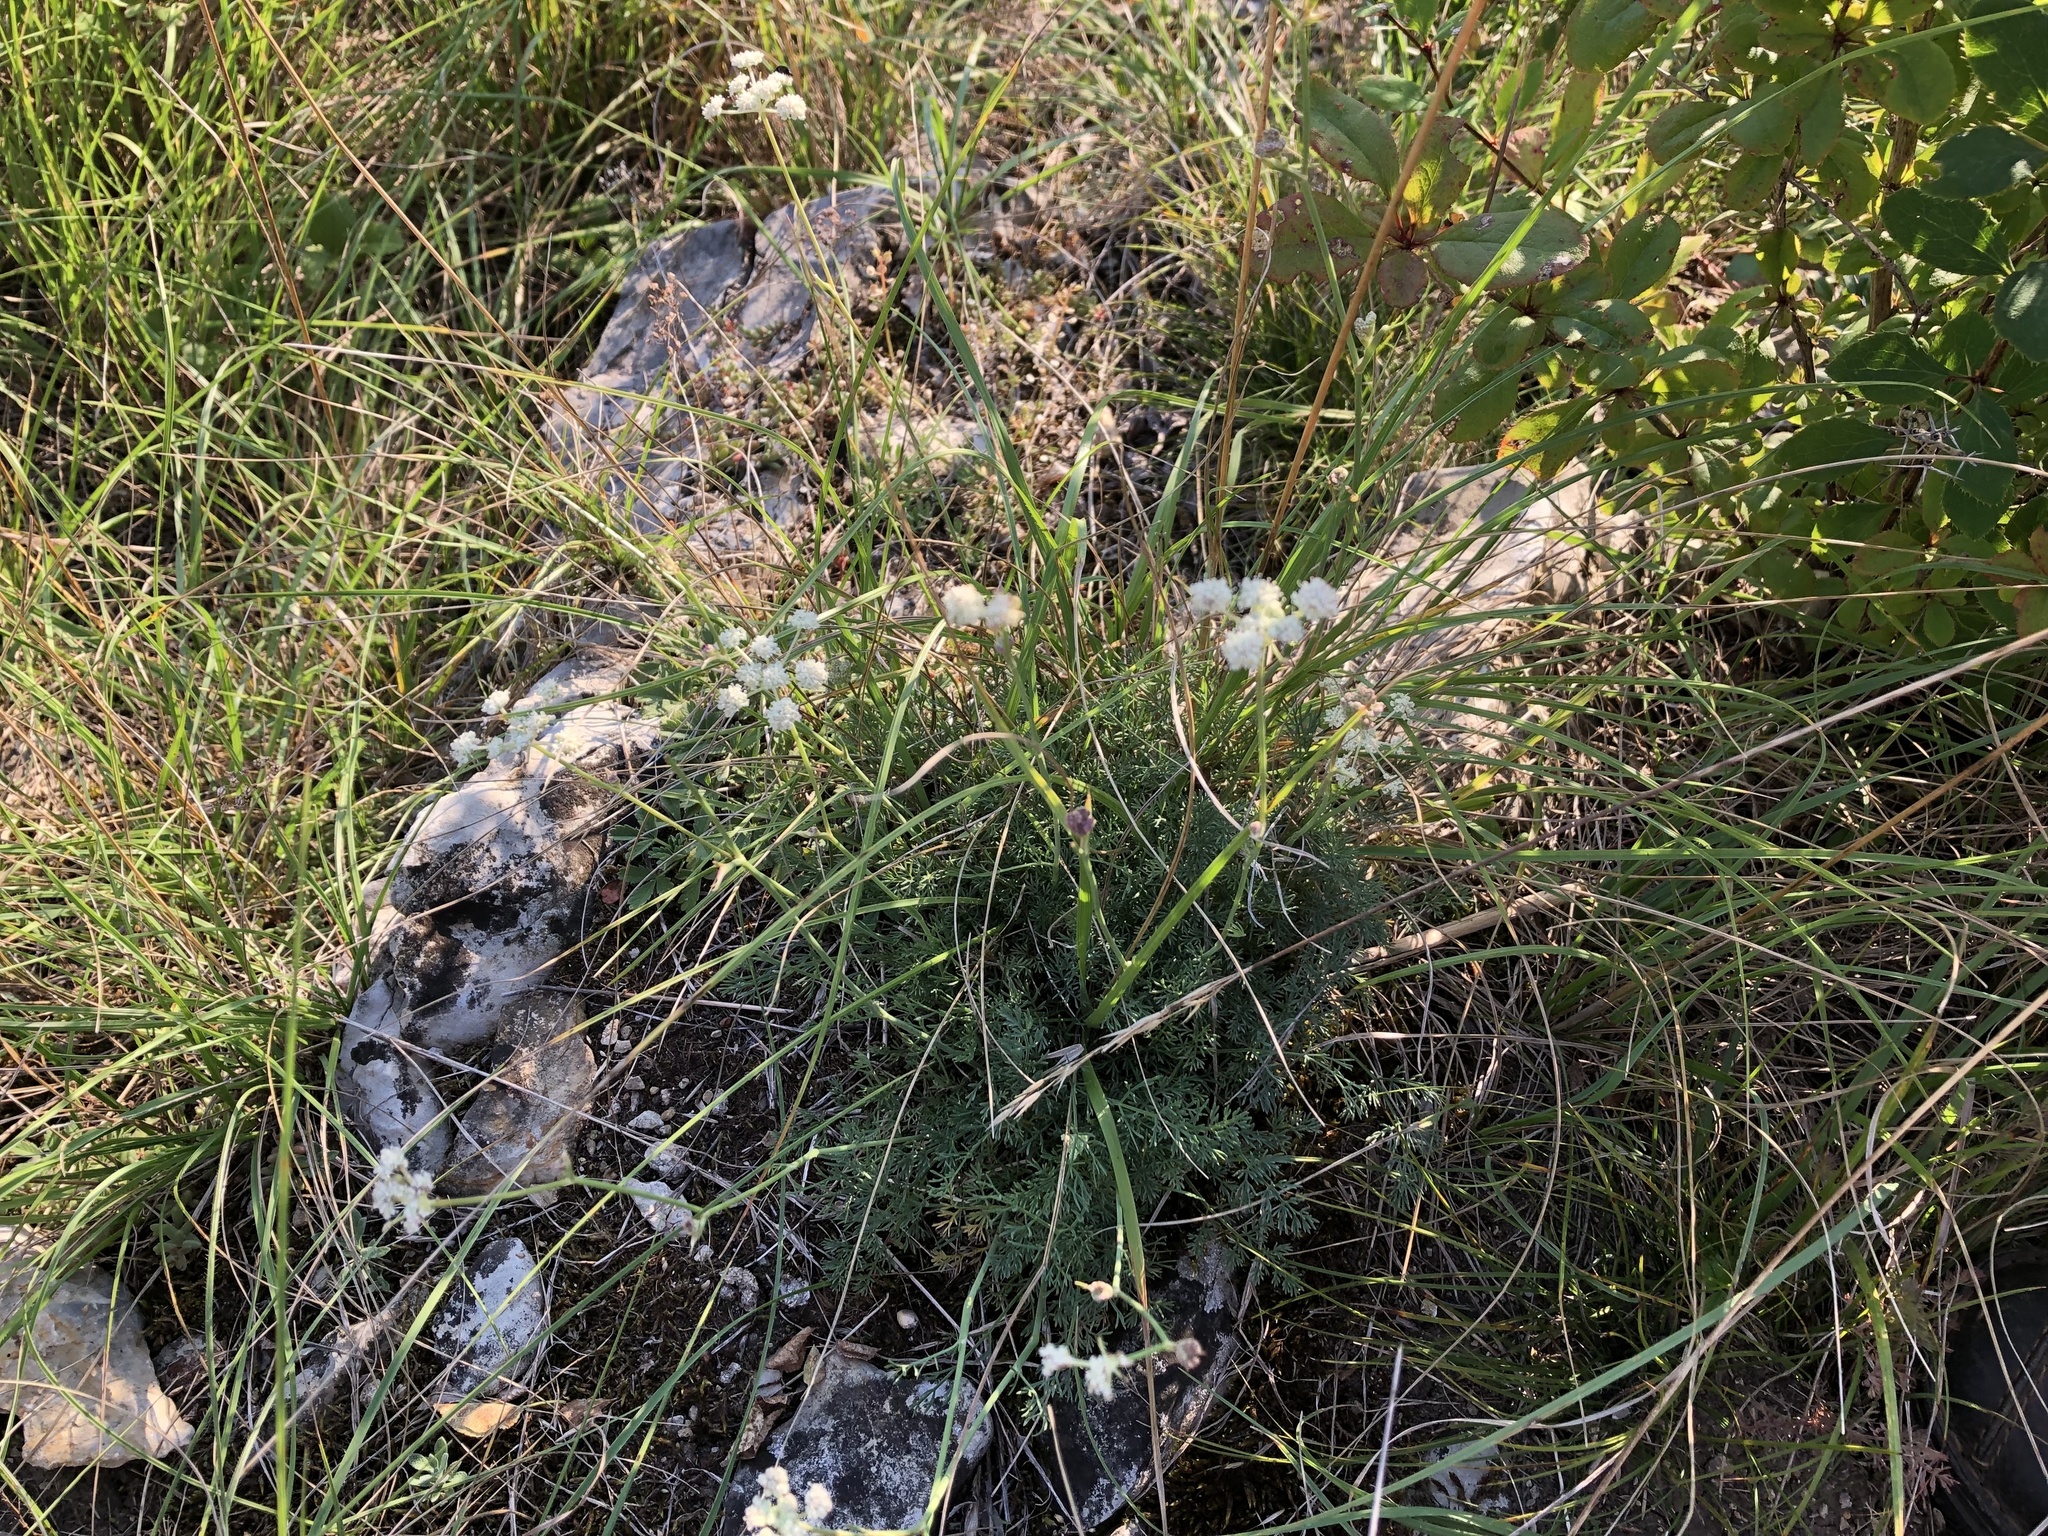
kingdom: Plantae
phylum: Tracheophyta
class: Magnoliopsida
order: Apiales
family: Apiaceae
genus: Hippomarathrum
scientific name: Hippomarathrum
